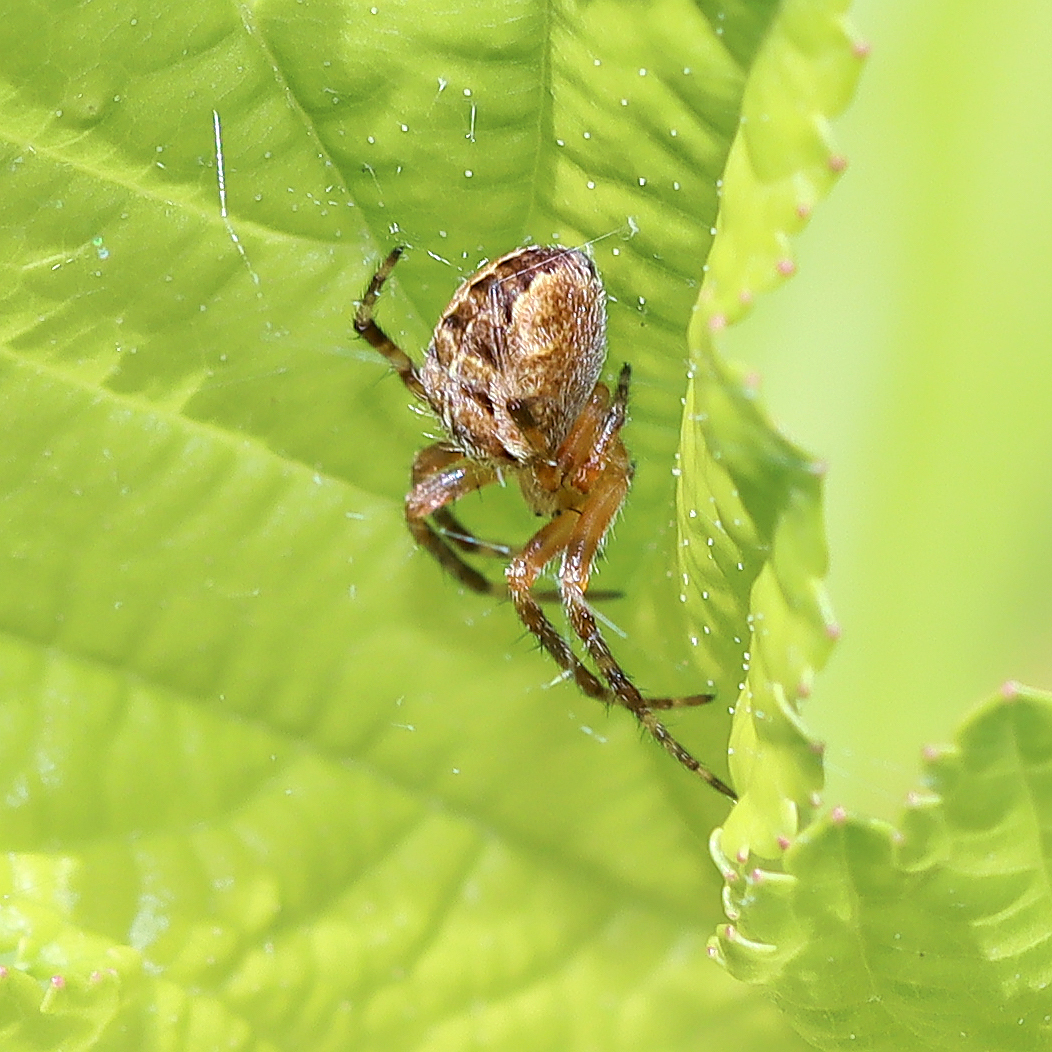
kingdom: Animalia
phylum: Arthropoda
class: Arachnida
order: Araneae
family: Araneidae
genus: Araneus
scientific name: Araneus diadematus
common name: Cross orbweaver
